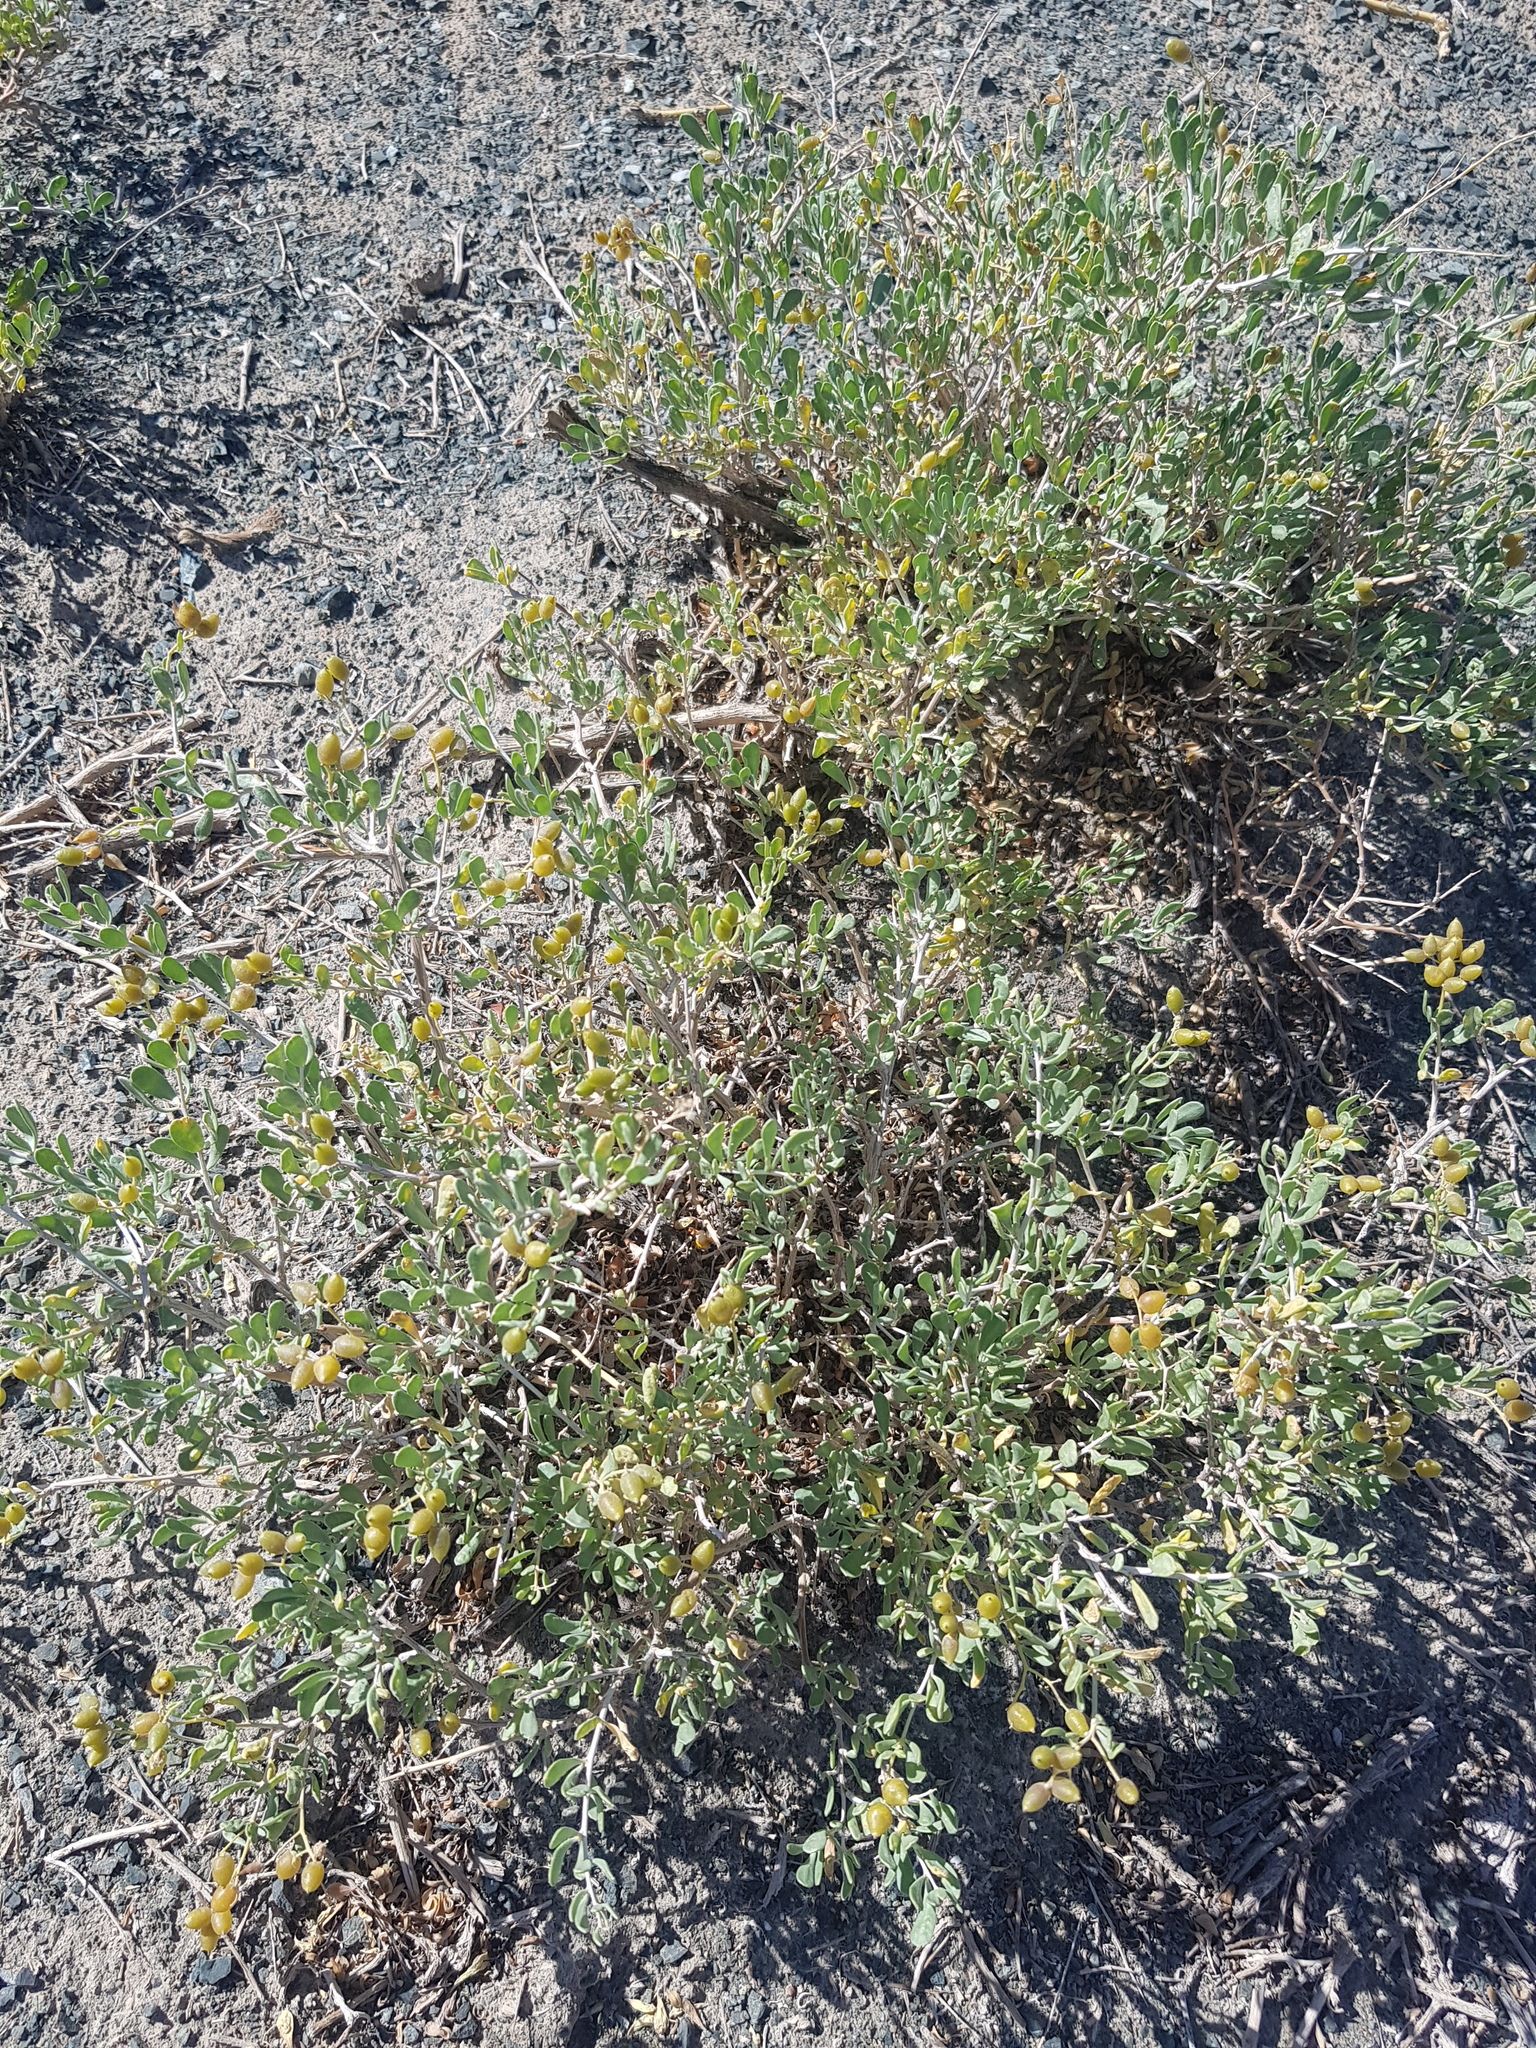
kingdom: Plantae
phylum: Tracheophyta
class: Magnoliopsida
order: Sapindales
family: Nitrariaceae
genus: Nitraria
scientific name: Nitraria sibirica
